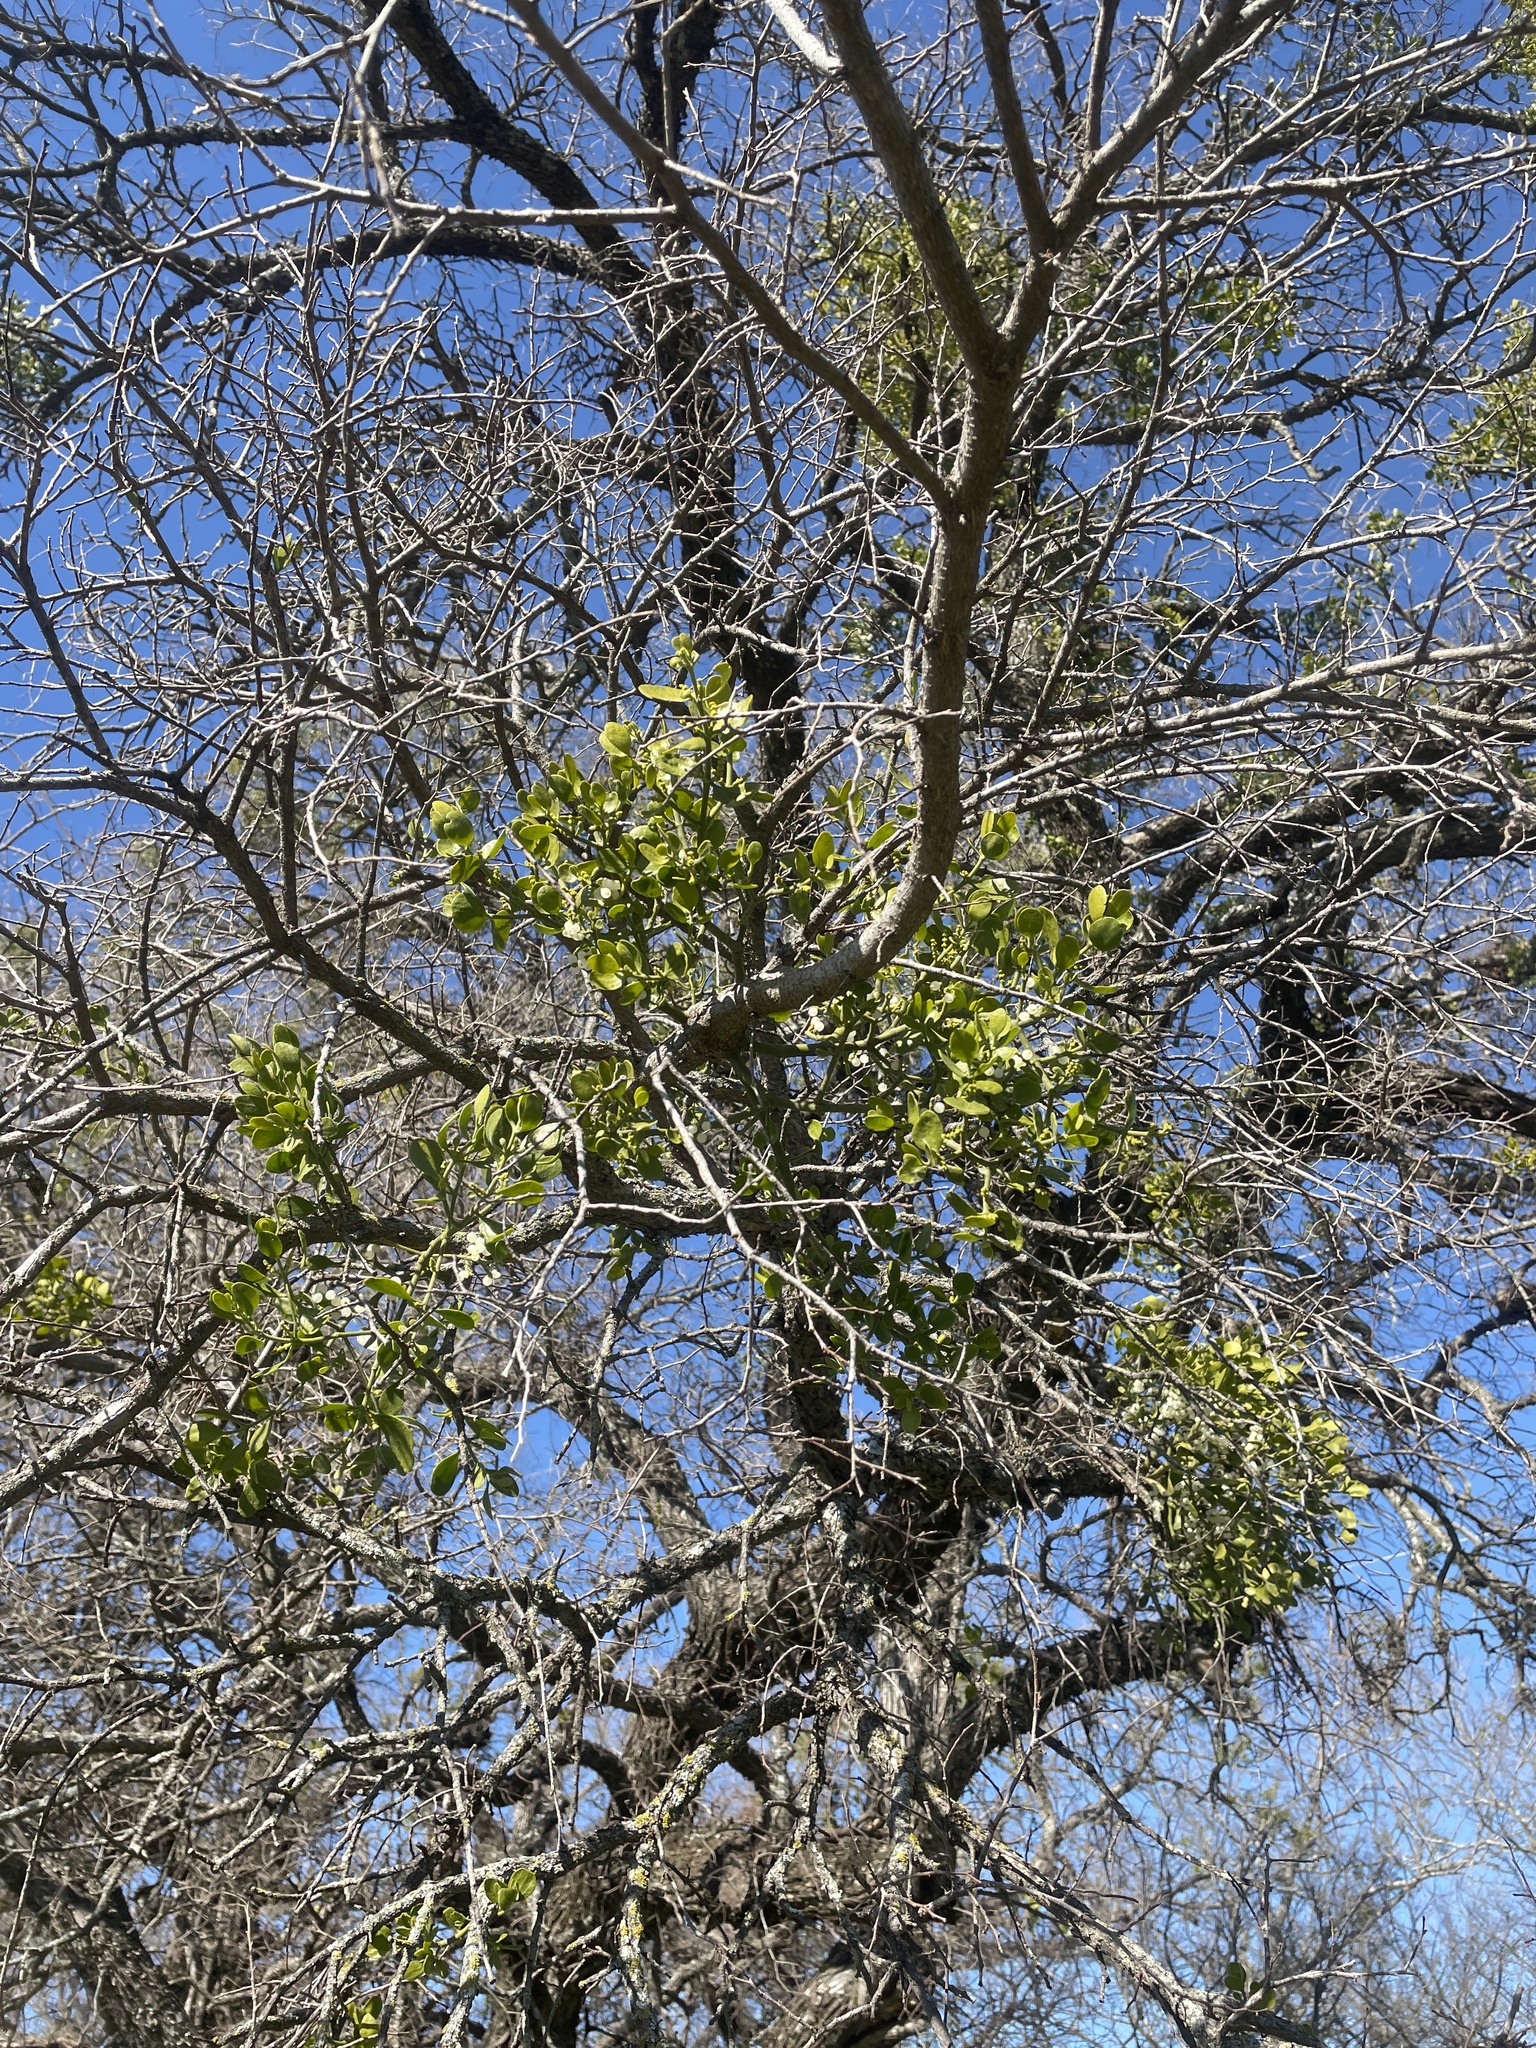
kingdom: Plantae
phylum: Tracheophyta
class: Magnoliopsida
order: Santalales
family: Viscaceae
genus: Phoradendron
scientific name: Phoradendron leucarpum
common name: Pacific mistletoe
